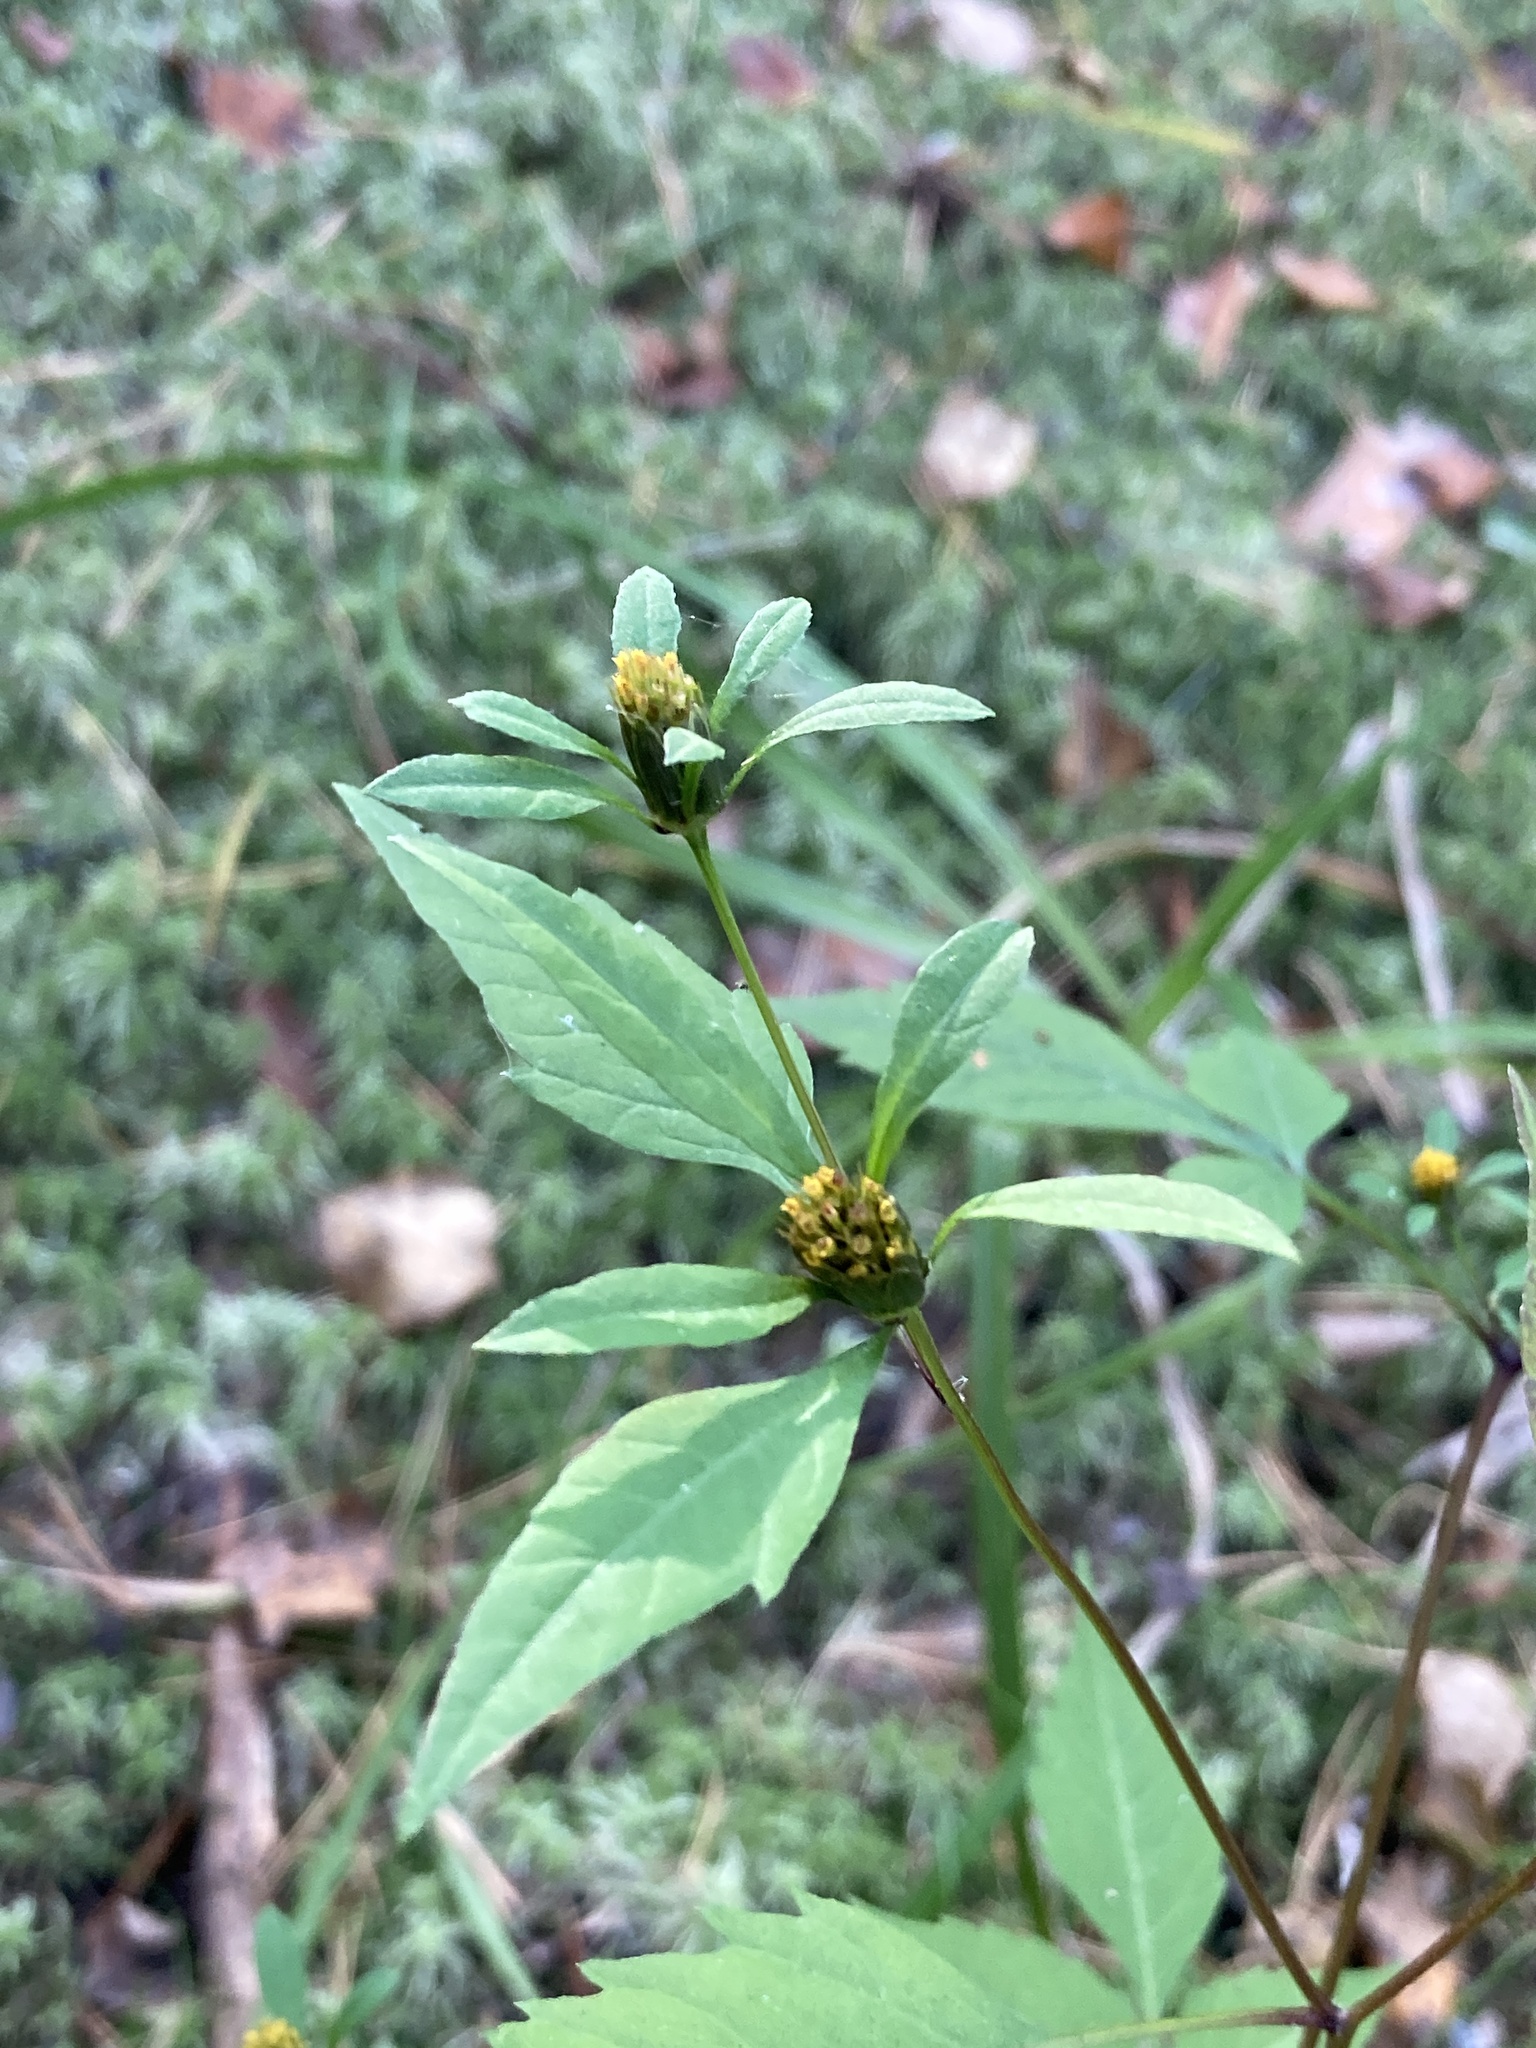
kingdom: Plantae
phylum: Tracheophyta
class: Magnoliopsida
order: Asterales
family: Asteraceae
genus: Bidens
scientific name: Bidens frondosa
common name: Beggarticks
